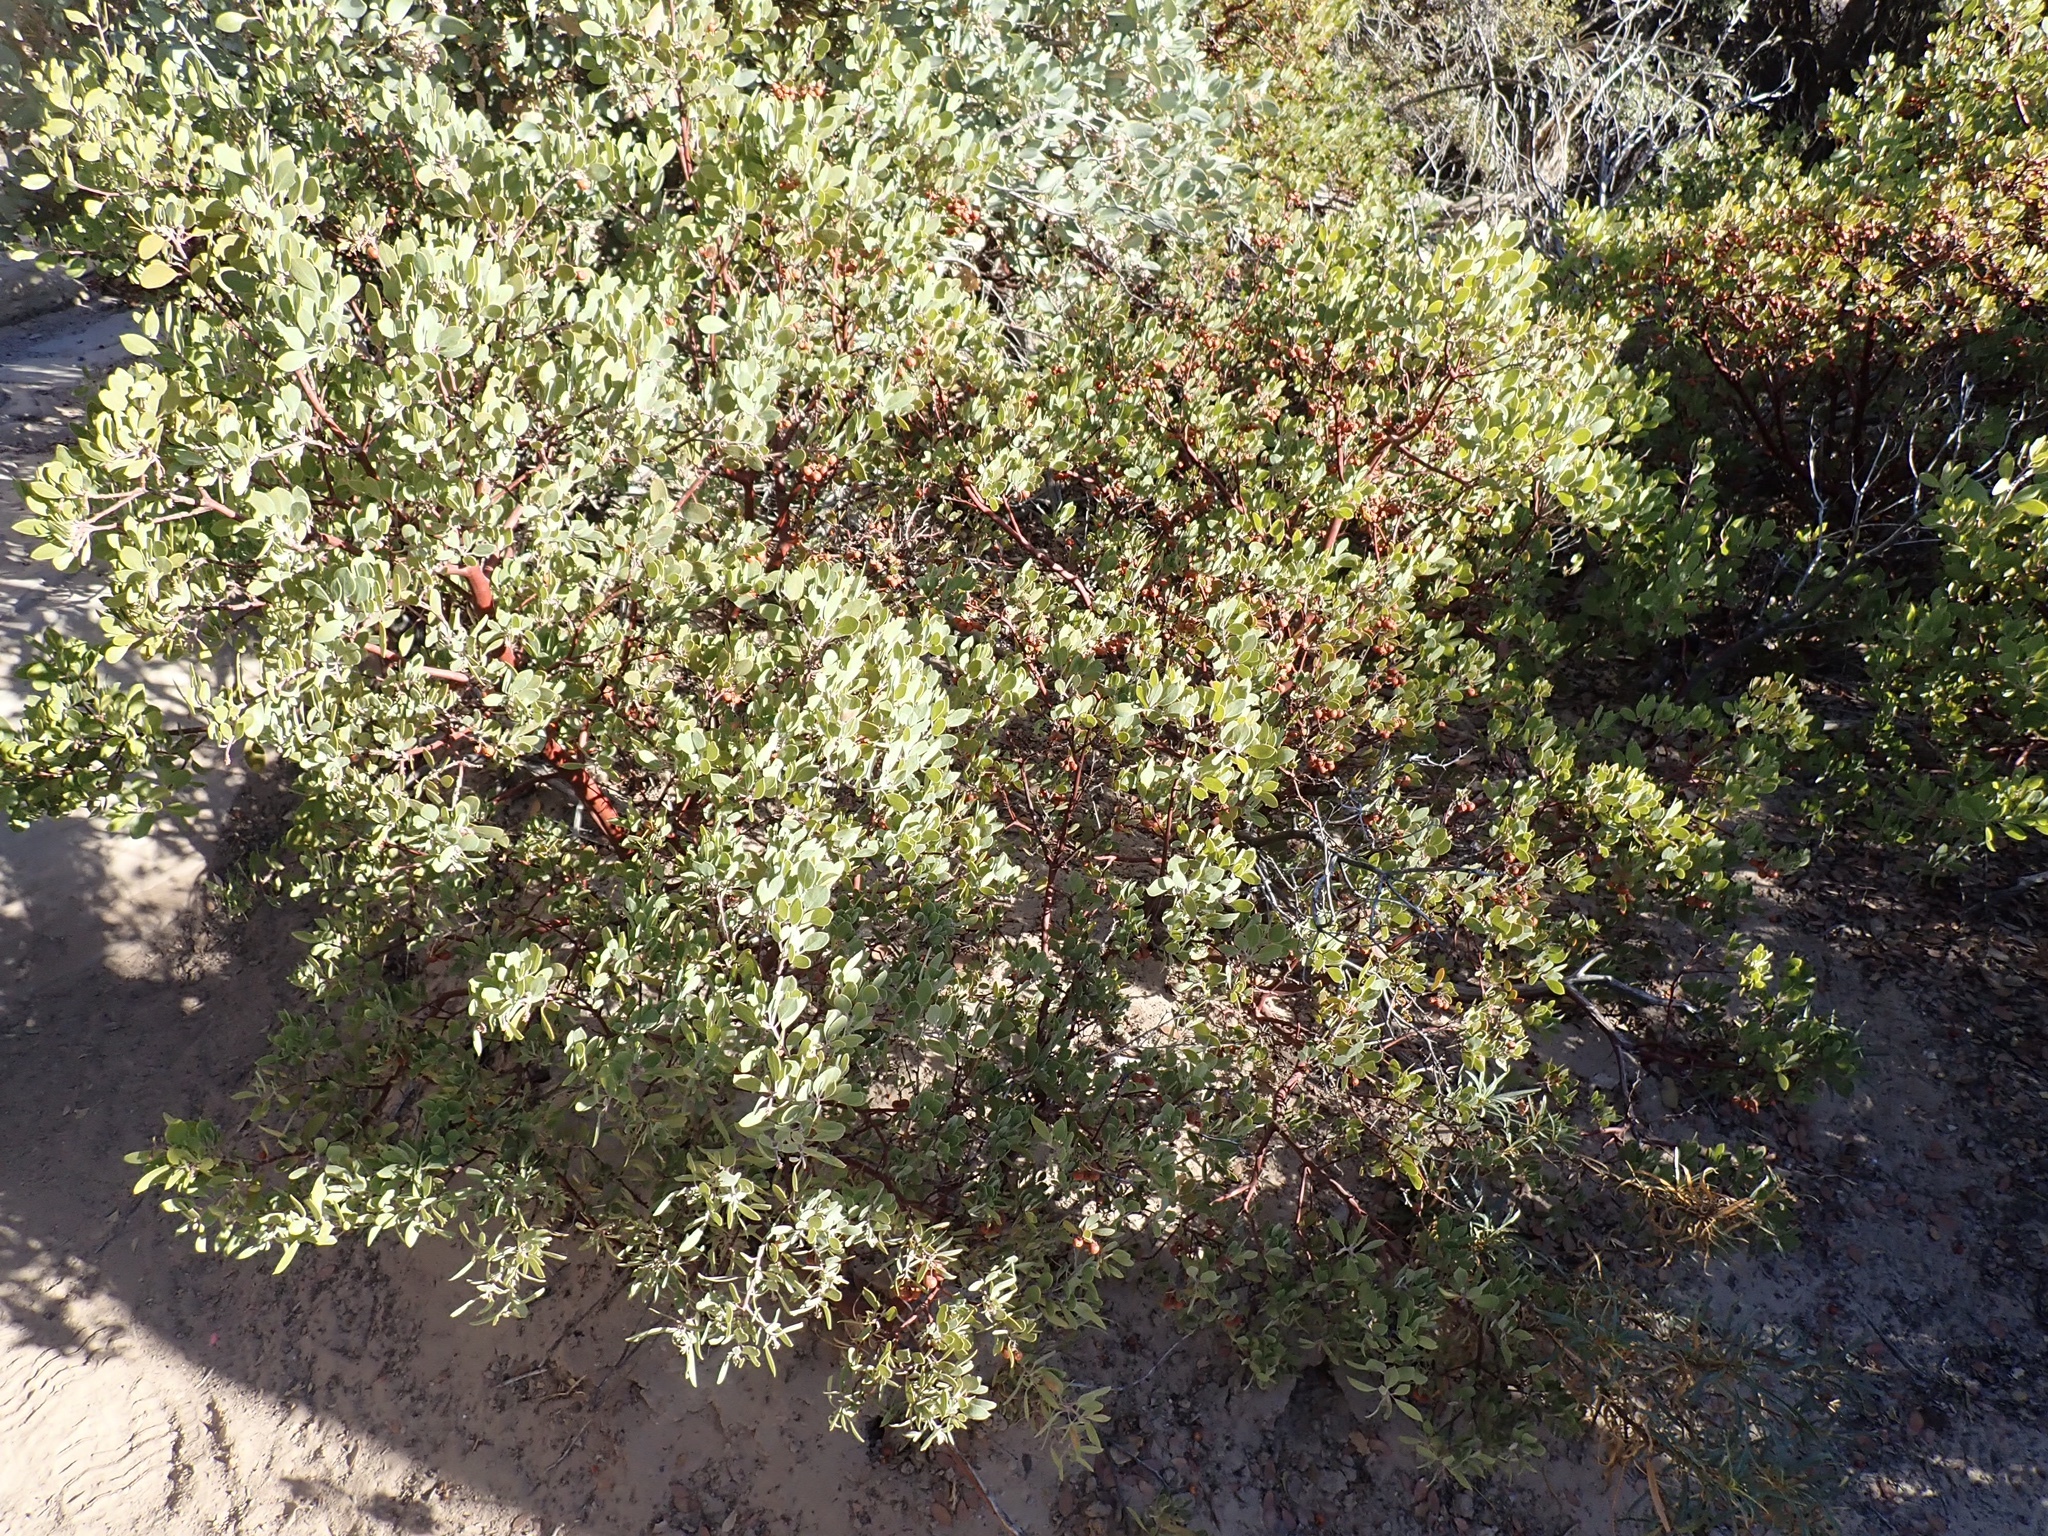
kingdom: Plantae
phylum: Tracheophyta
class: Magnoliopsida
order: Ericales
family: Ericaceae
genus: Arctostaphylos
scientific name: Arctostaphylos pungens
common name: Mexican manzanita
